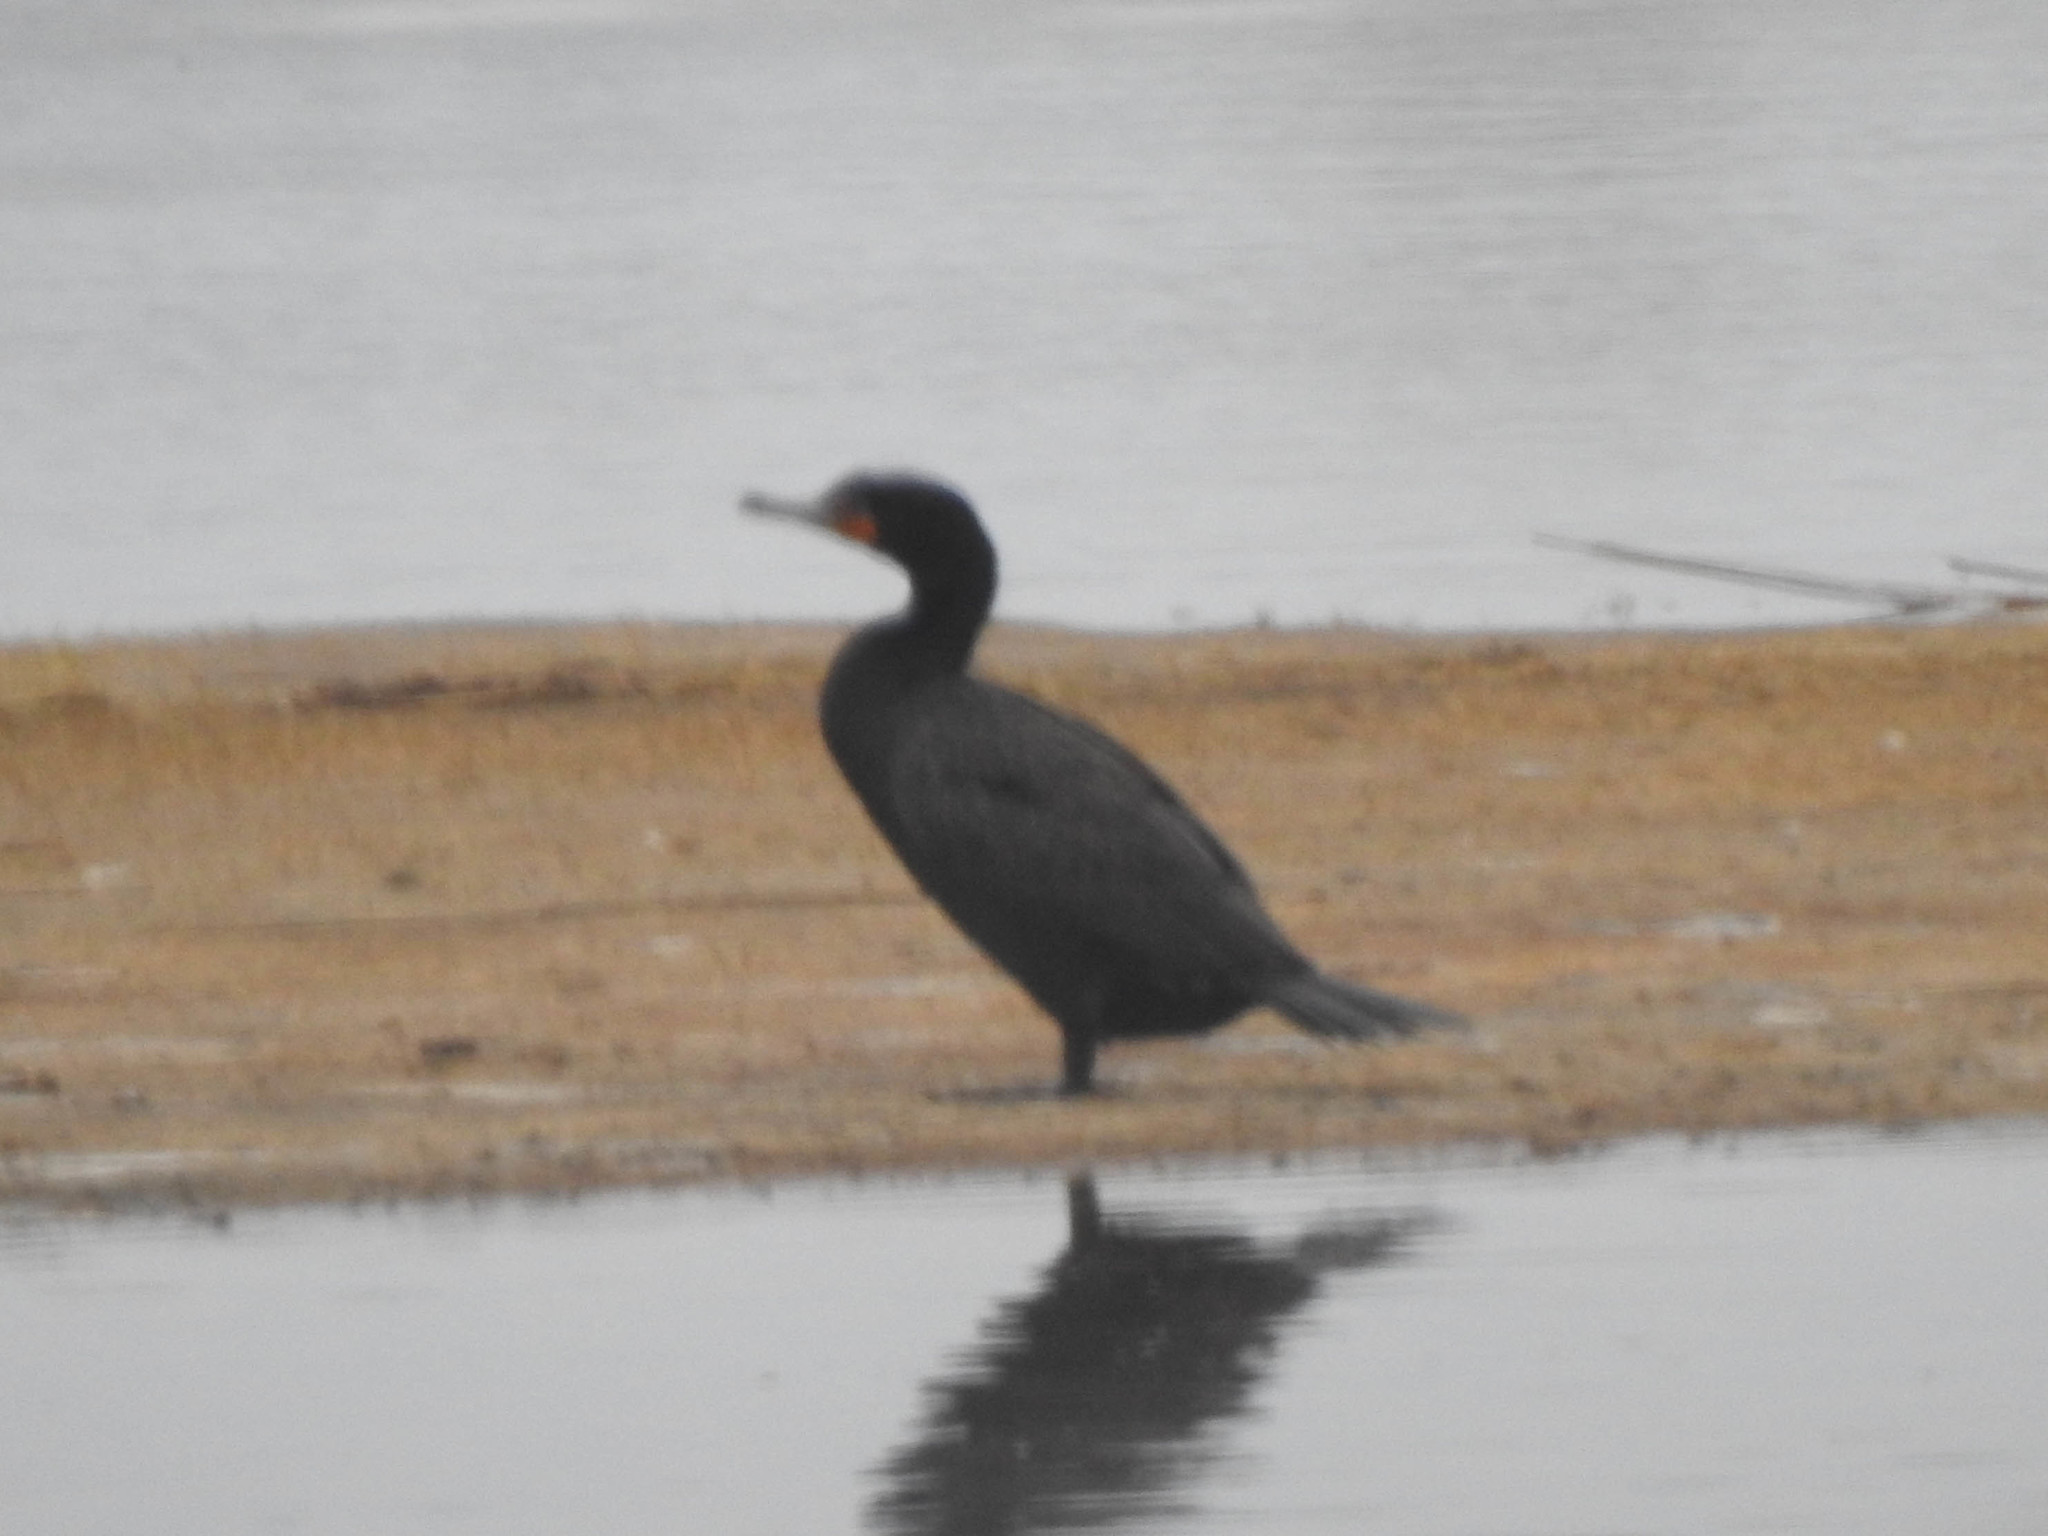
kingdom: Animalia
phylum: Chordata
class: Aves
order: Suliformes
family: Phalacrocoracidae
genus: Phalacrocorax
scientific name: Phalacrocorax auritus
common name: Double-crested cormorant
